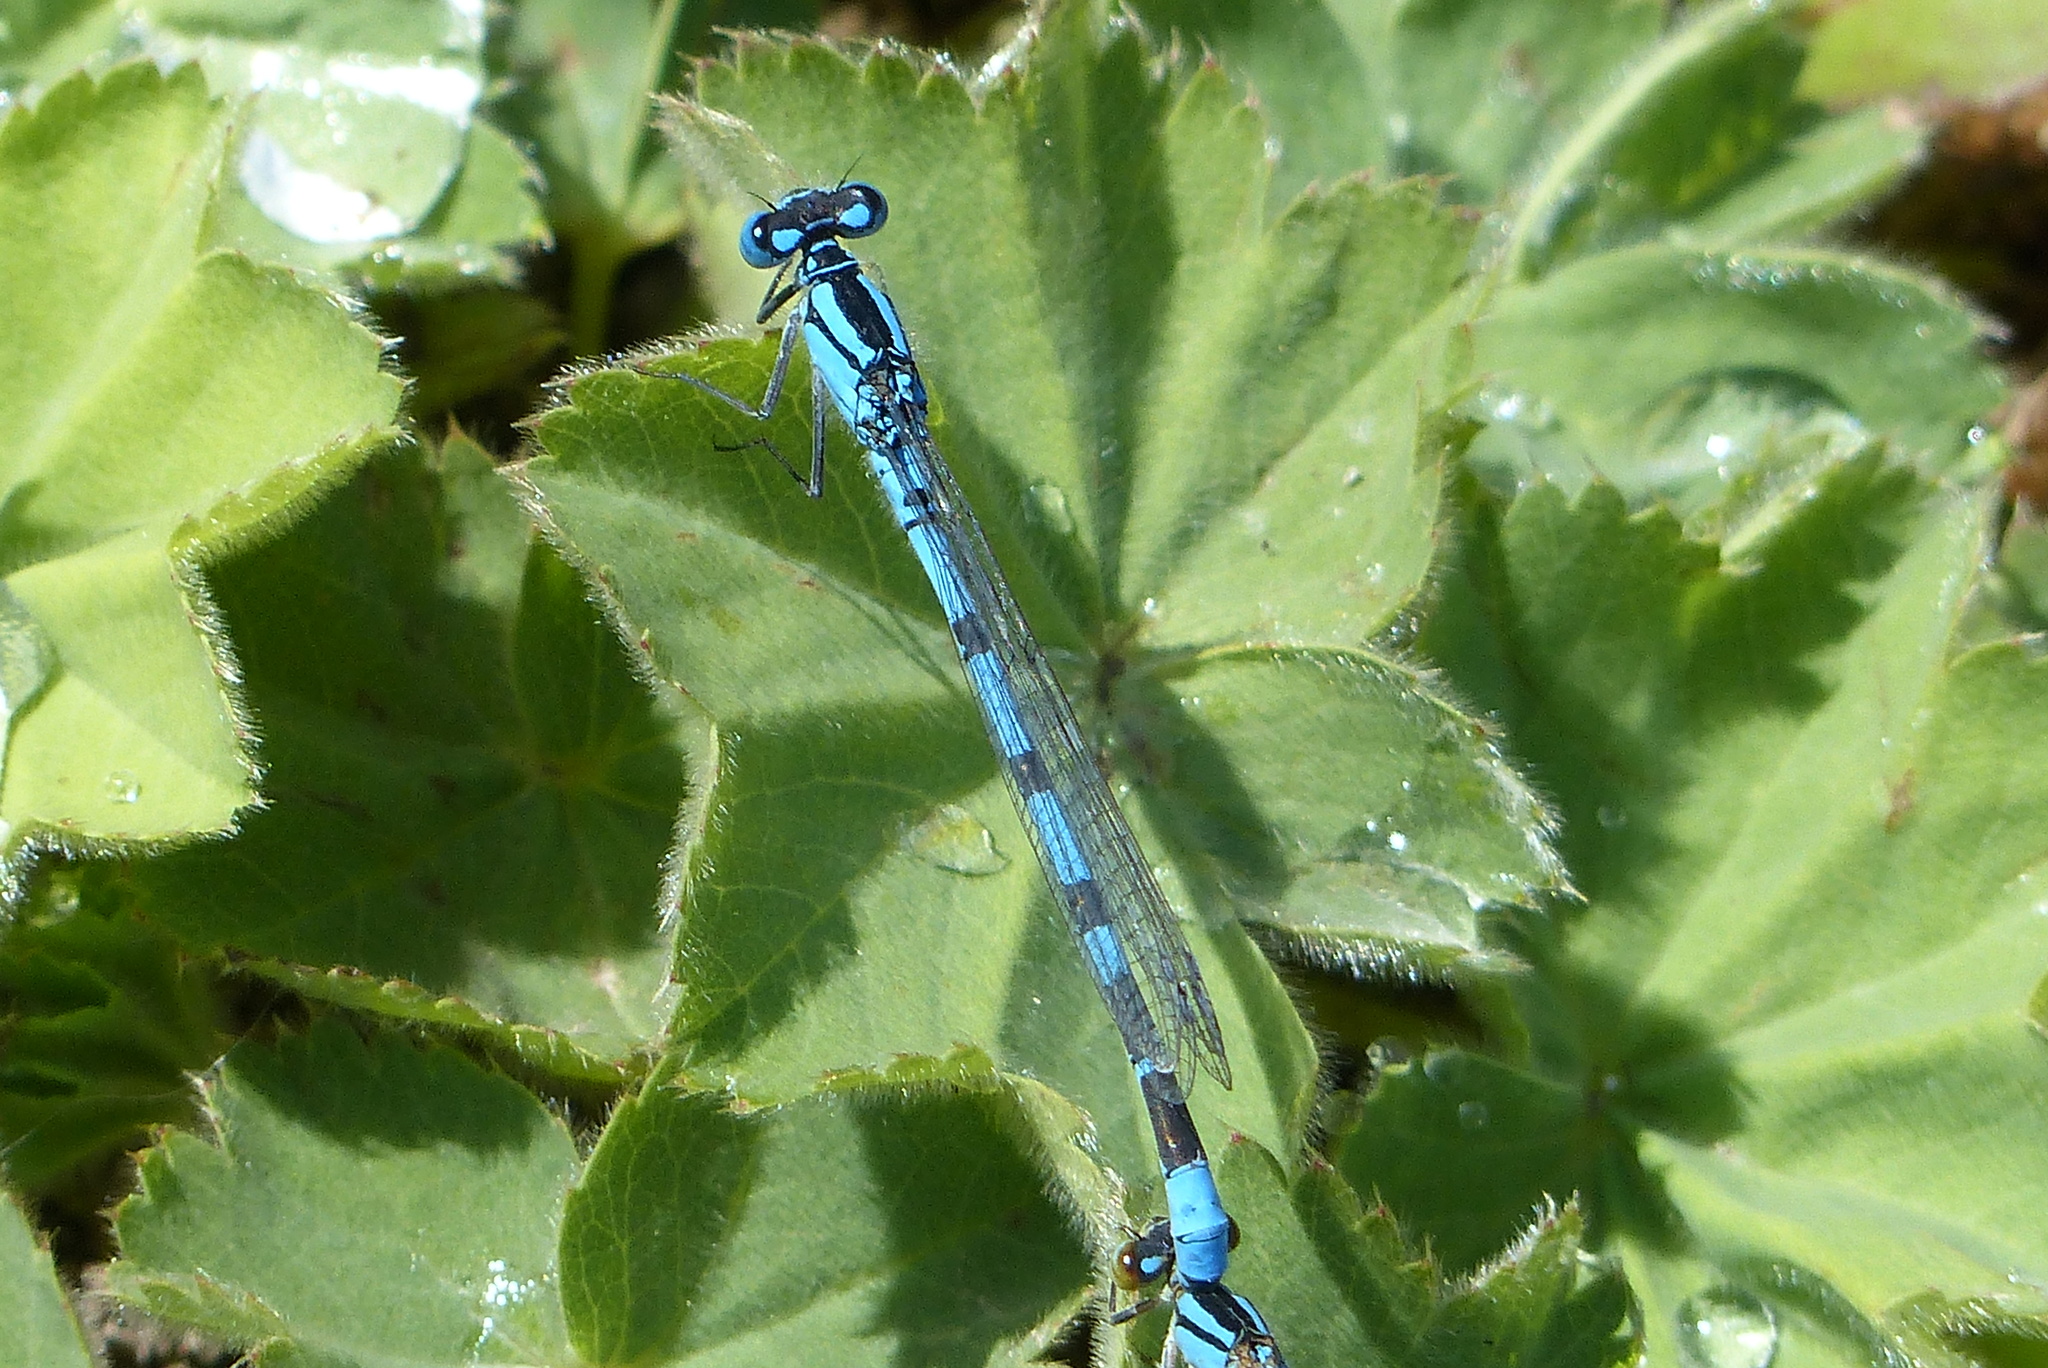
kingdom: Animalia
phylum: Arthropoda
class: Insecta
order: Odonata
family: Coenagrionidae
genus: Enallagma
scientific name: Enallagma cyathigerum
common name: Common blue damselfly
